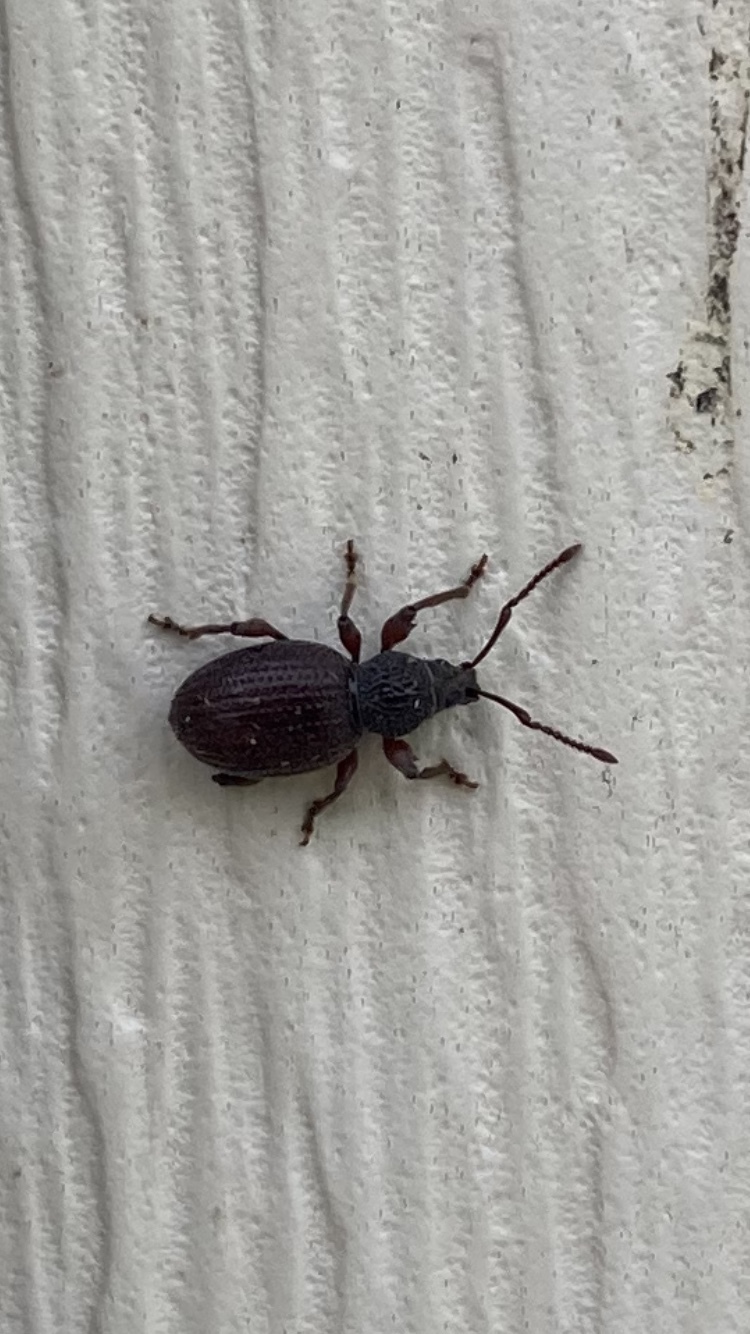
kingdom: Animalia
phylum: Arthropoda
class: Insecta
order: Coleoptera
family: Curculionidae
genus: Otiorhynchus
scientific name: Otiorhynchus ovatus
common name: Strawberry root weevil
